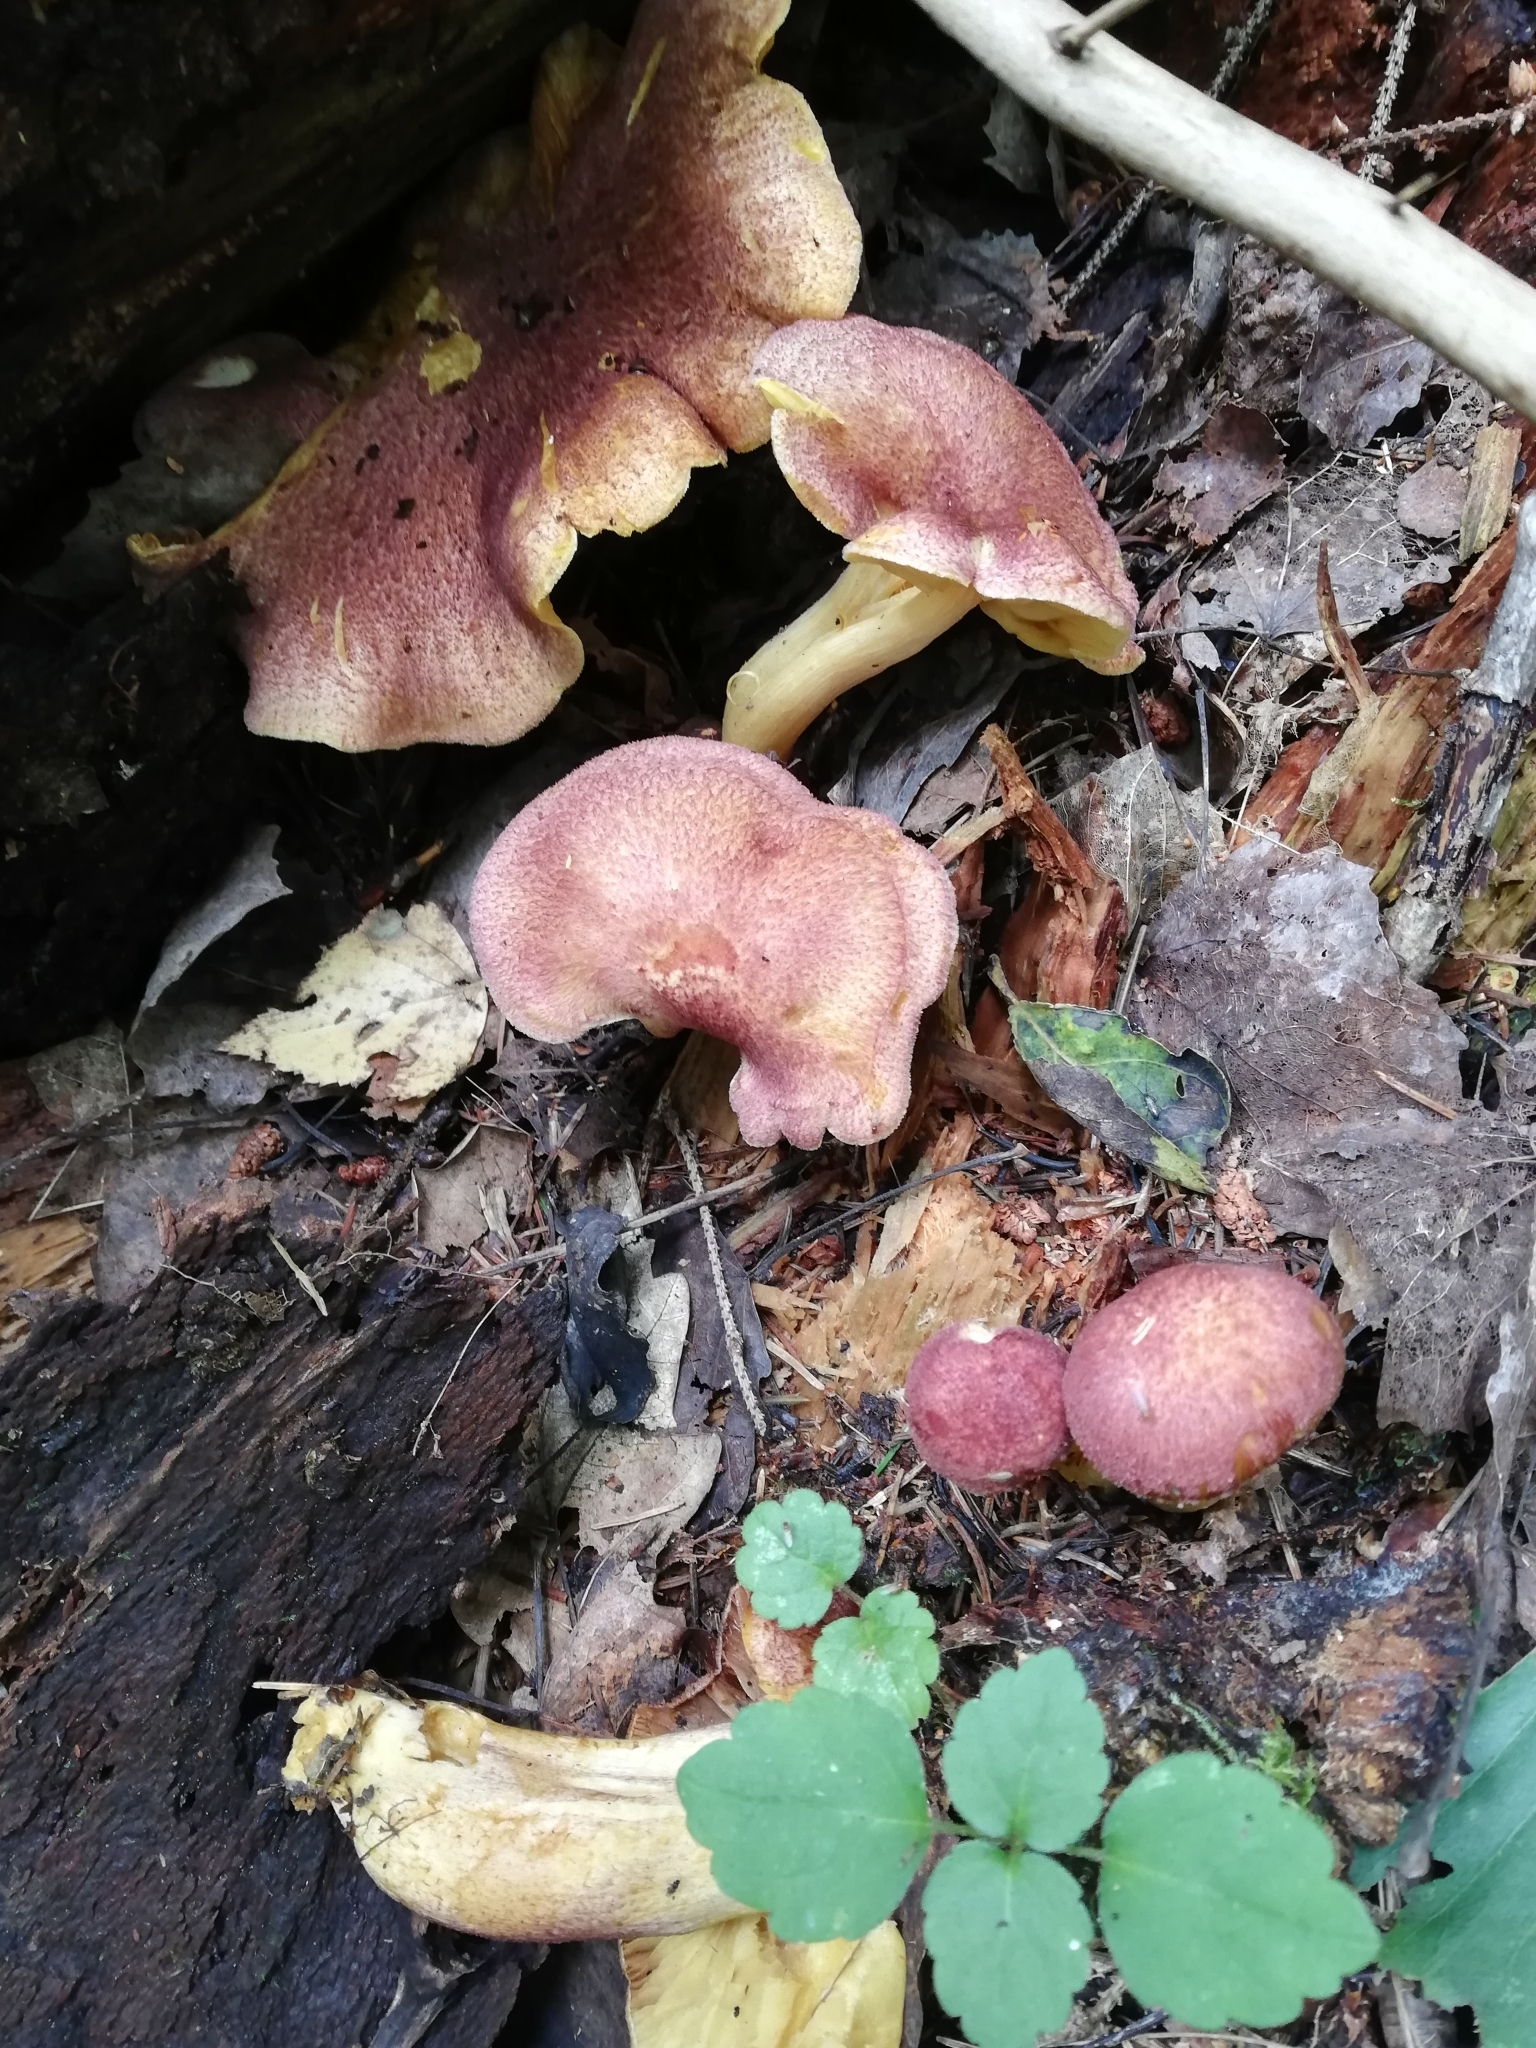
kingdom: Fungi
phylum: Basidiomycota
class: Agaricomycetes
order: Agaricales
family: Tricholomataceae
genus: Tricholomopsis
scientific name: Tricholomopsis rutilans
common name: Plums and custard
